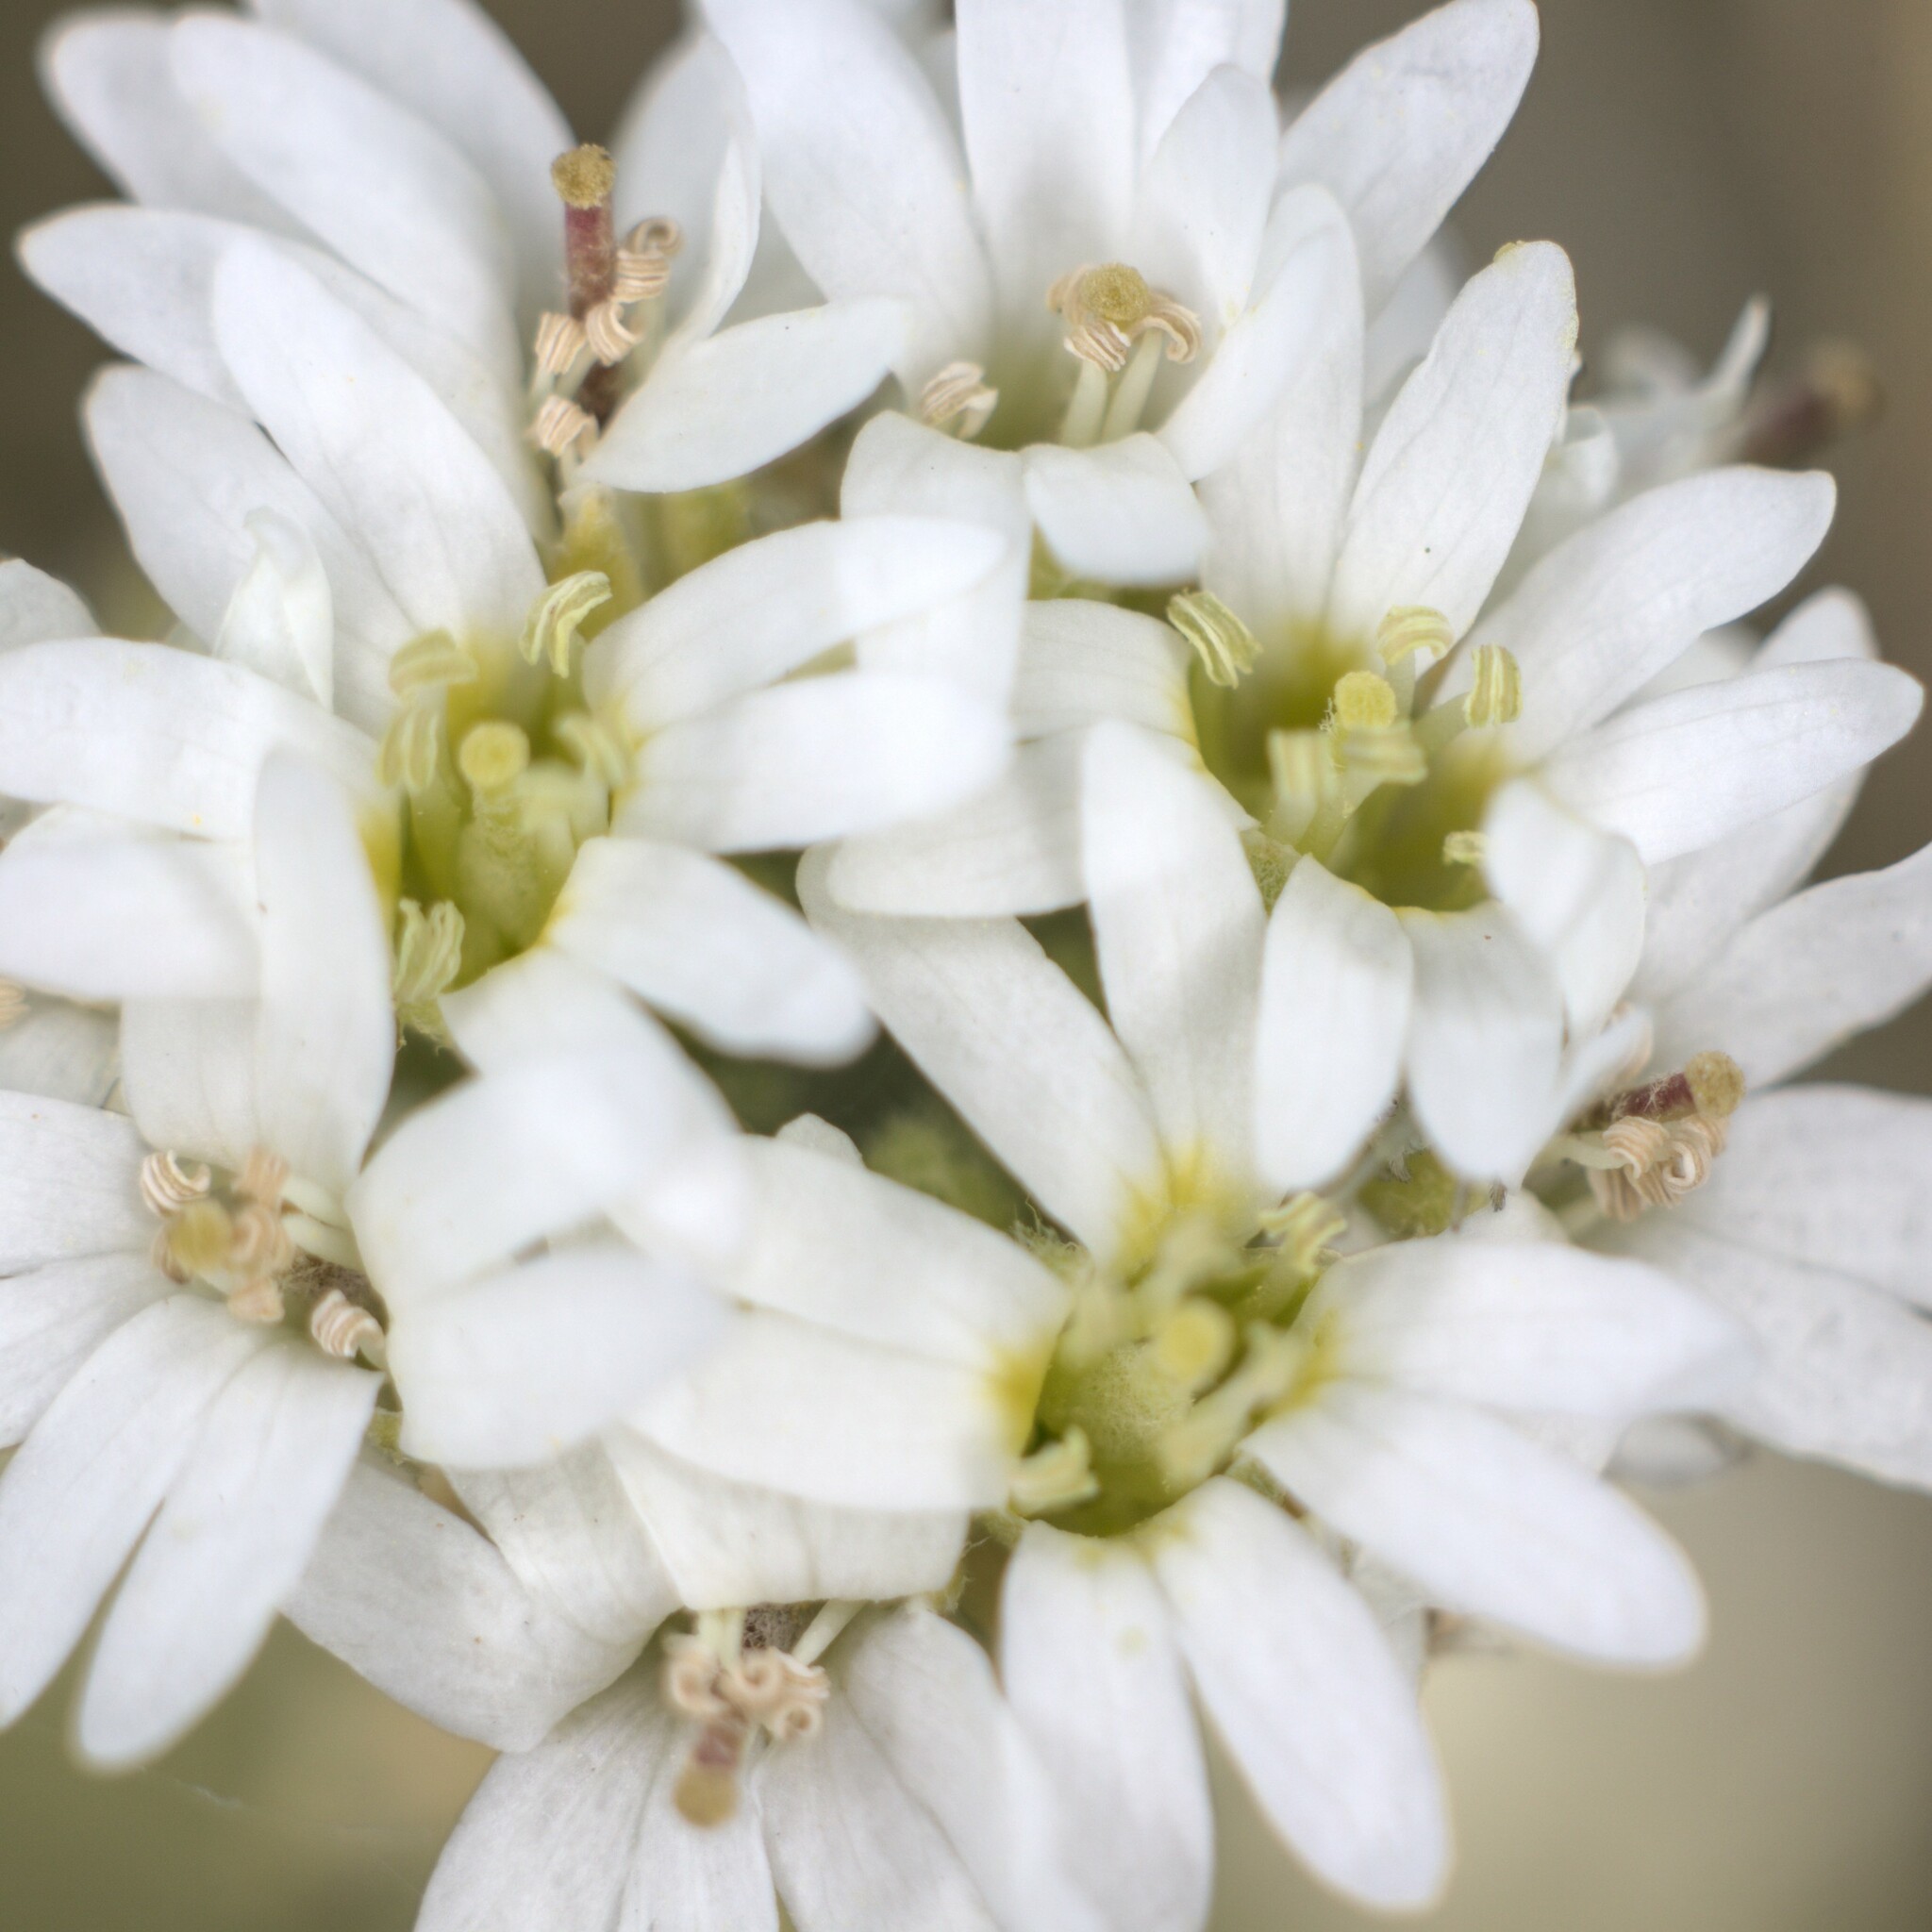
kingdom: Plantae
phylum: Tracheophyta
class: Magnoliopsida
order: Brassicales
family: Brassicaceae
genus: Berteroa
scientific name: Berteroa incana
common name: Hoary alison
